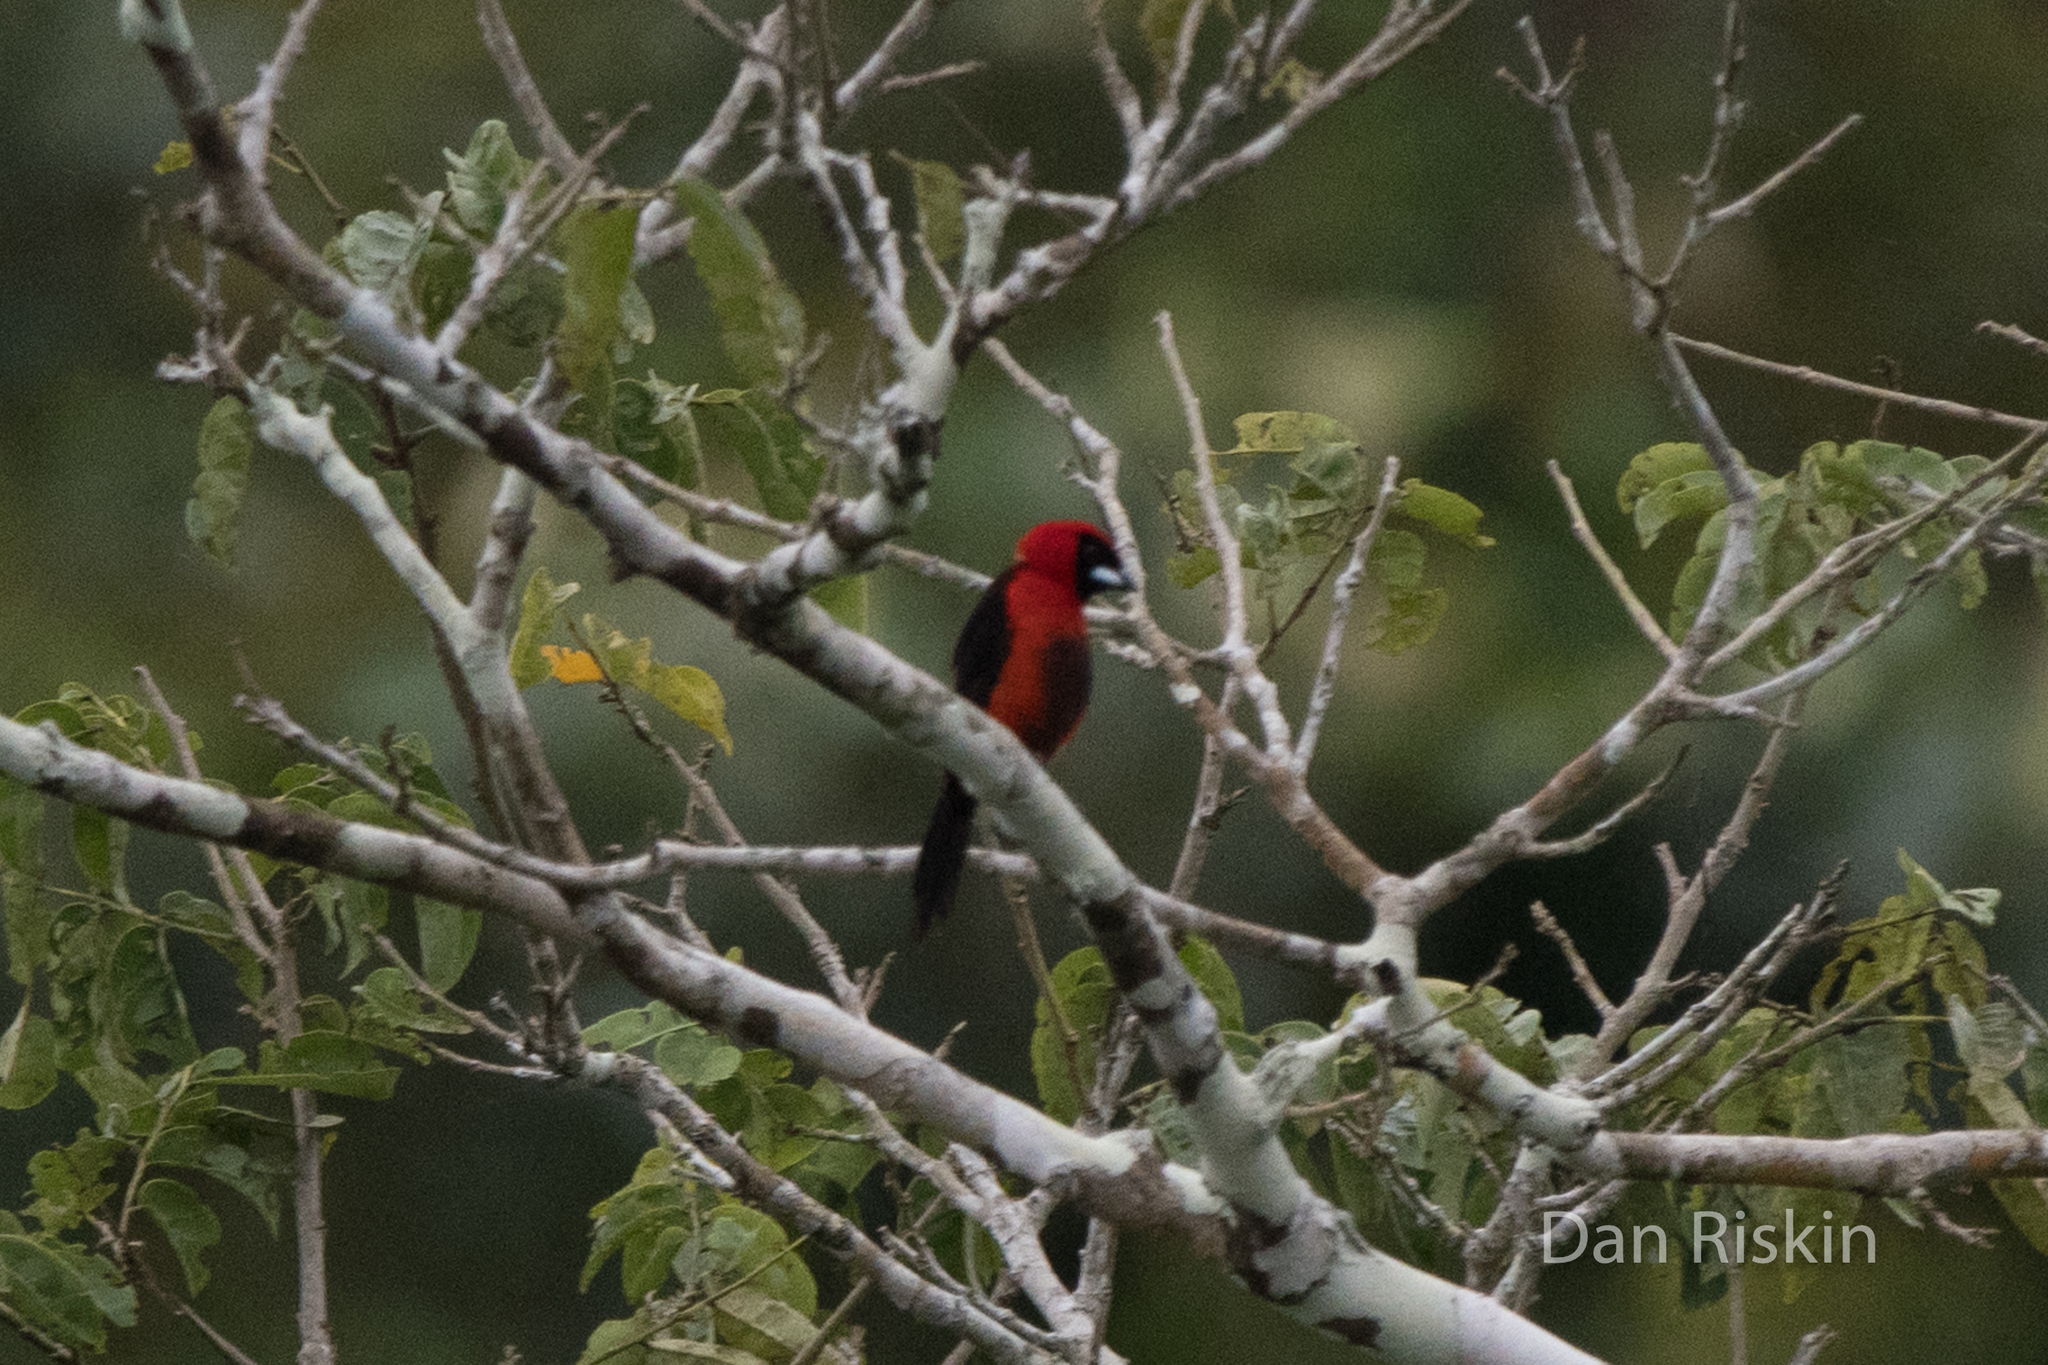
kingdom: Animalia
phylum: Chordata
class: Aves
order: Passeriformes
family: Thraupidae
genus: Ramphocelus
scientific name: Ramphocelus nigrogularis
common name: Masked crimson tanager
